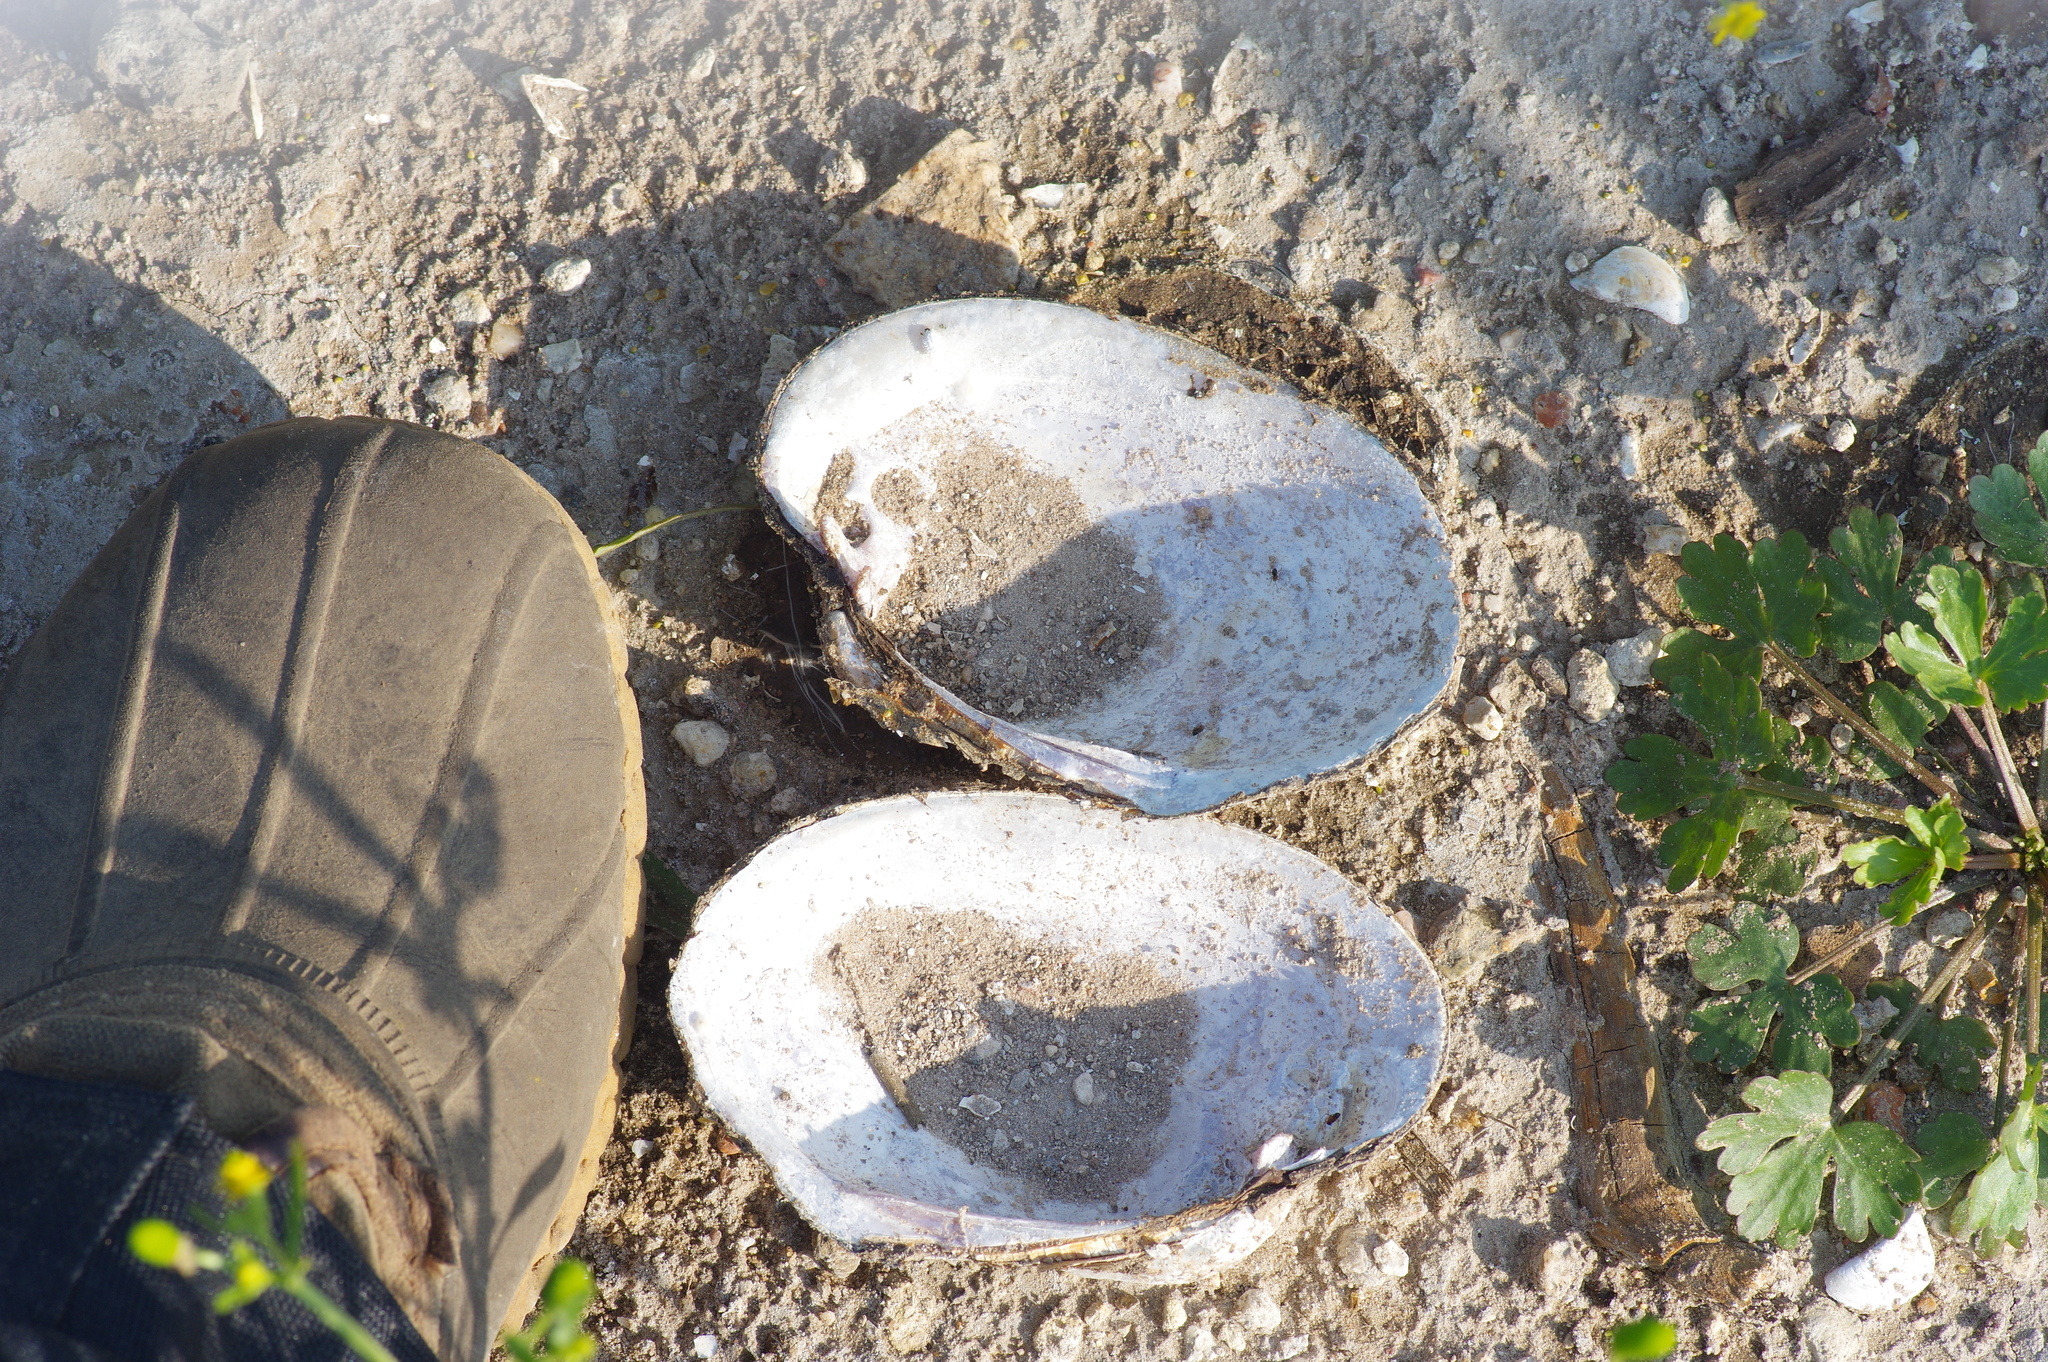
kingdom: Animalia
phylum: Mollusca
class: Bivalvia
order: Unionida
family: Unionidae
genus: Potamilus
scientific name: Potamilus purpuratus
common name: Bleufer
